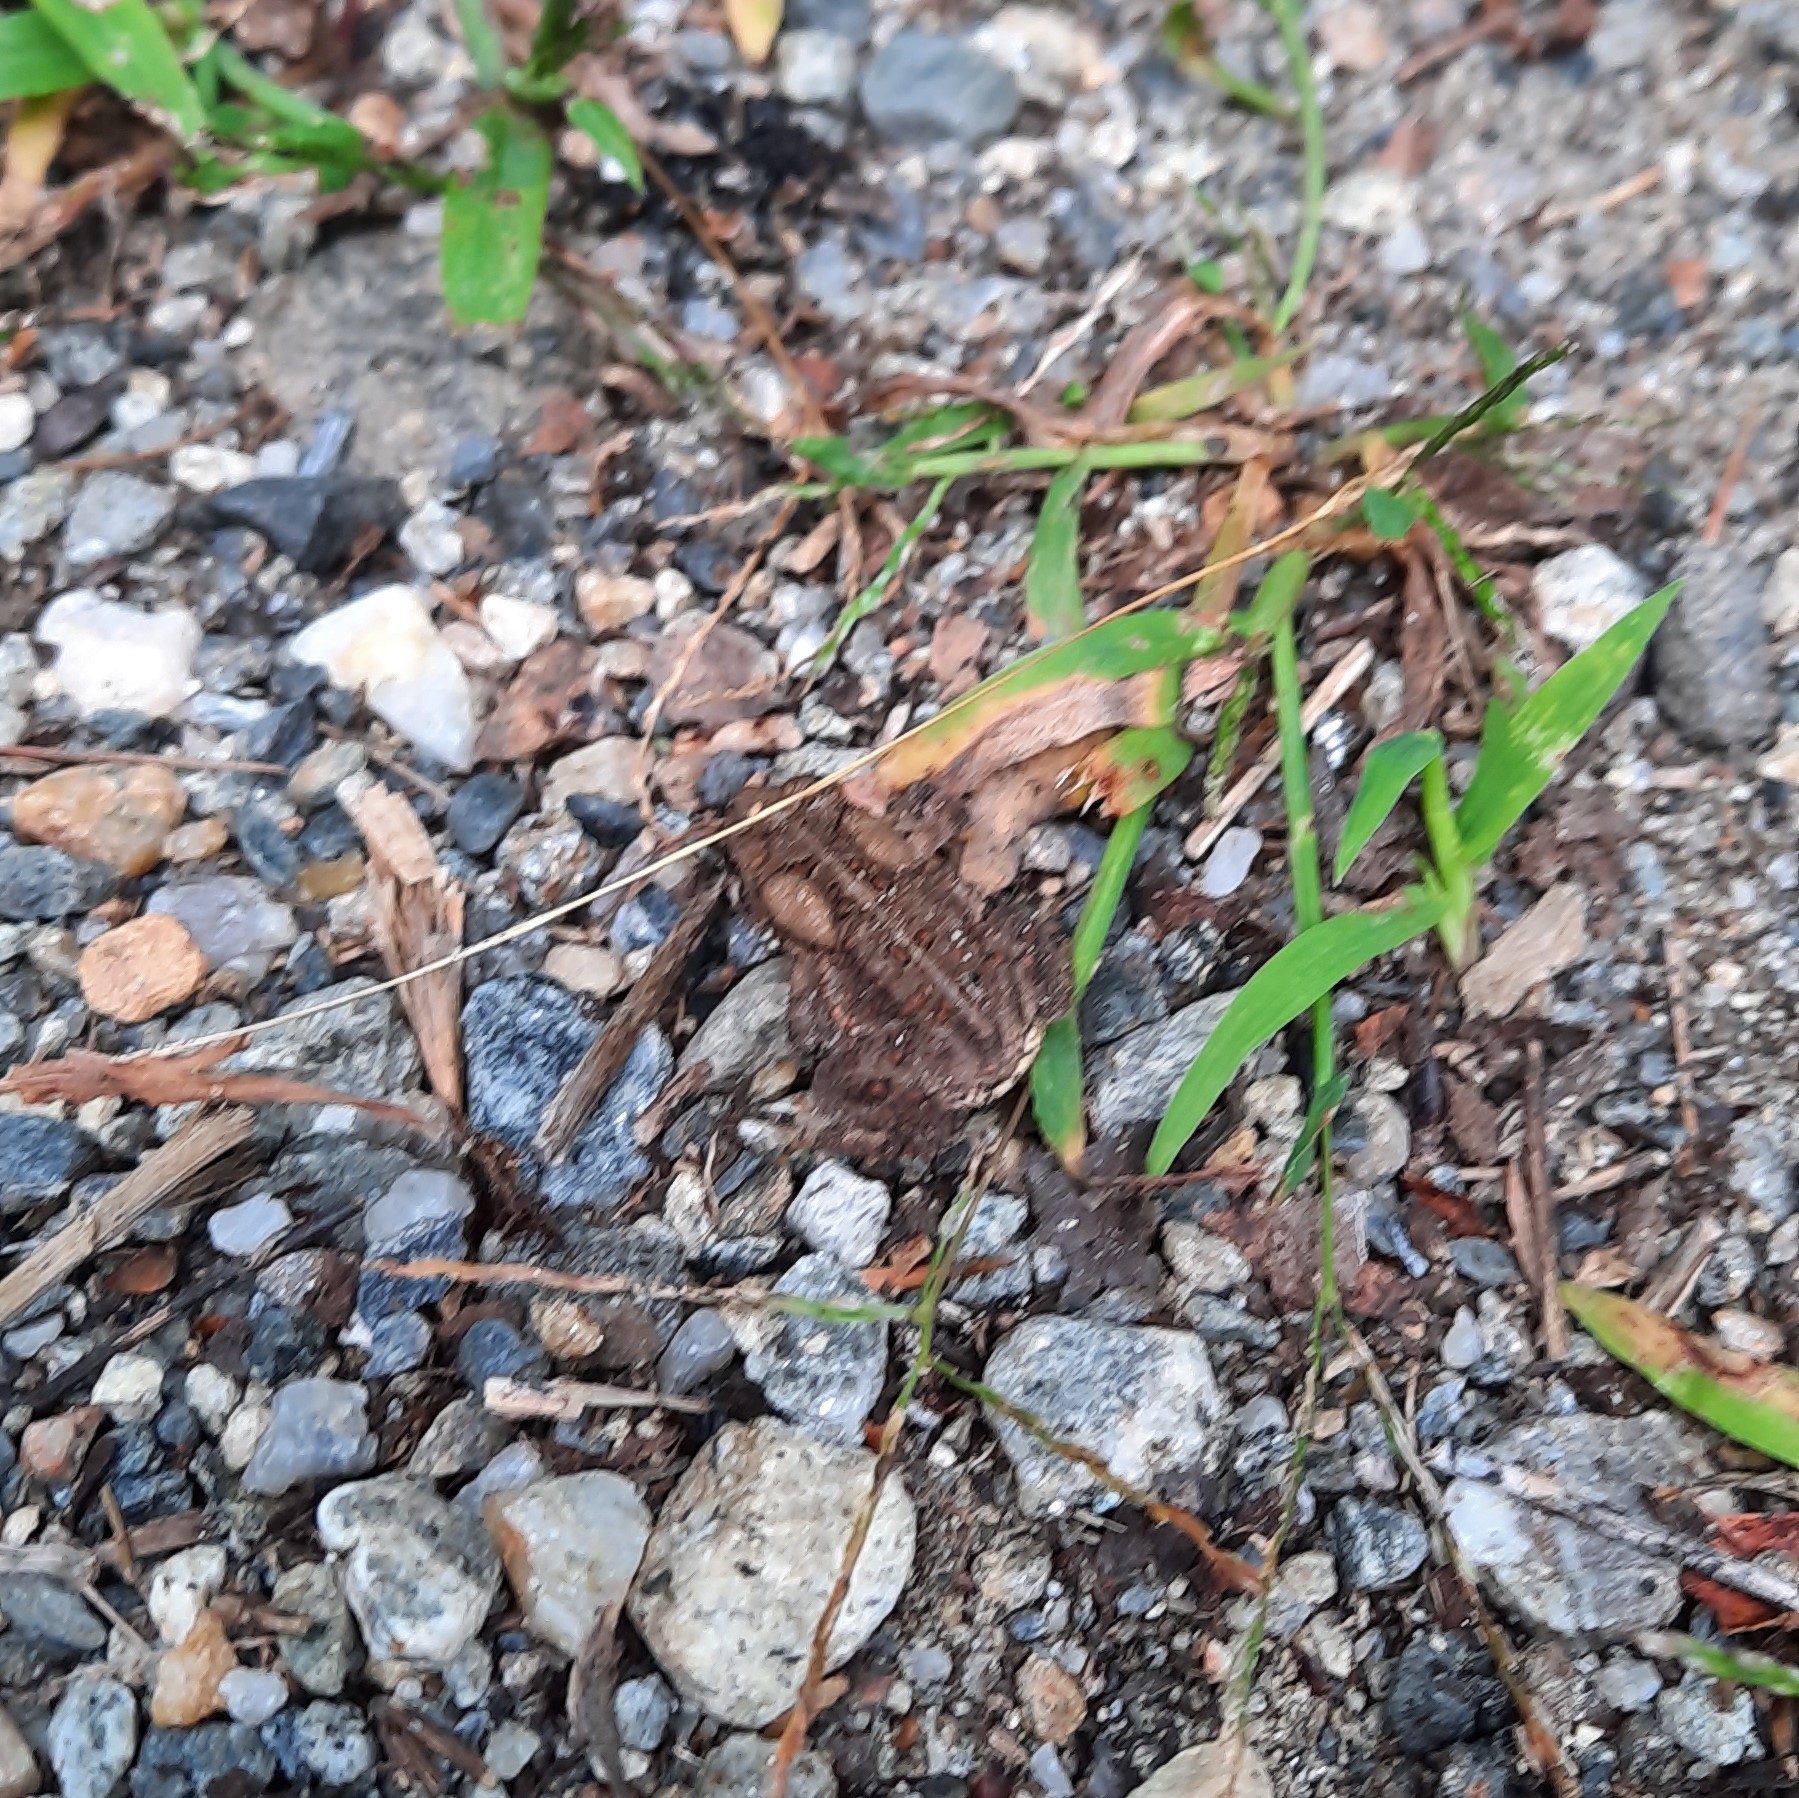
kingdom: Animalia
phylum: Chordata
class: Amphibia
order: Anura
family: Bufonidae
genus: Anaxyrus
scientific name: Anaxyrus americanus
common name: American toad
